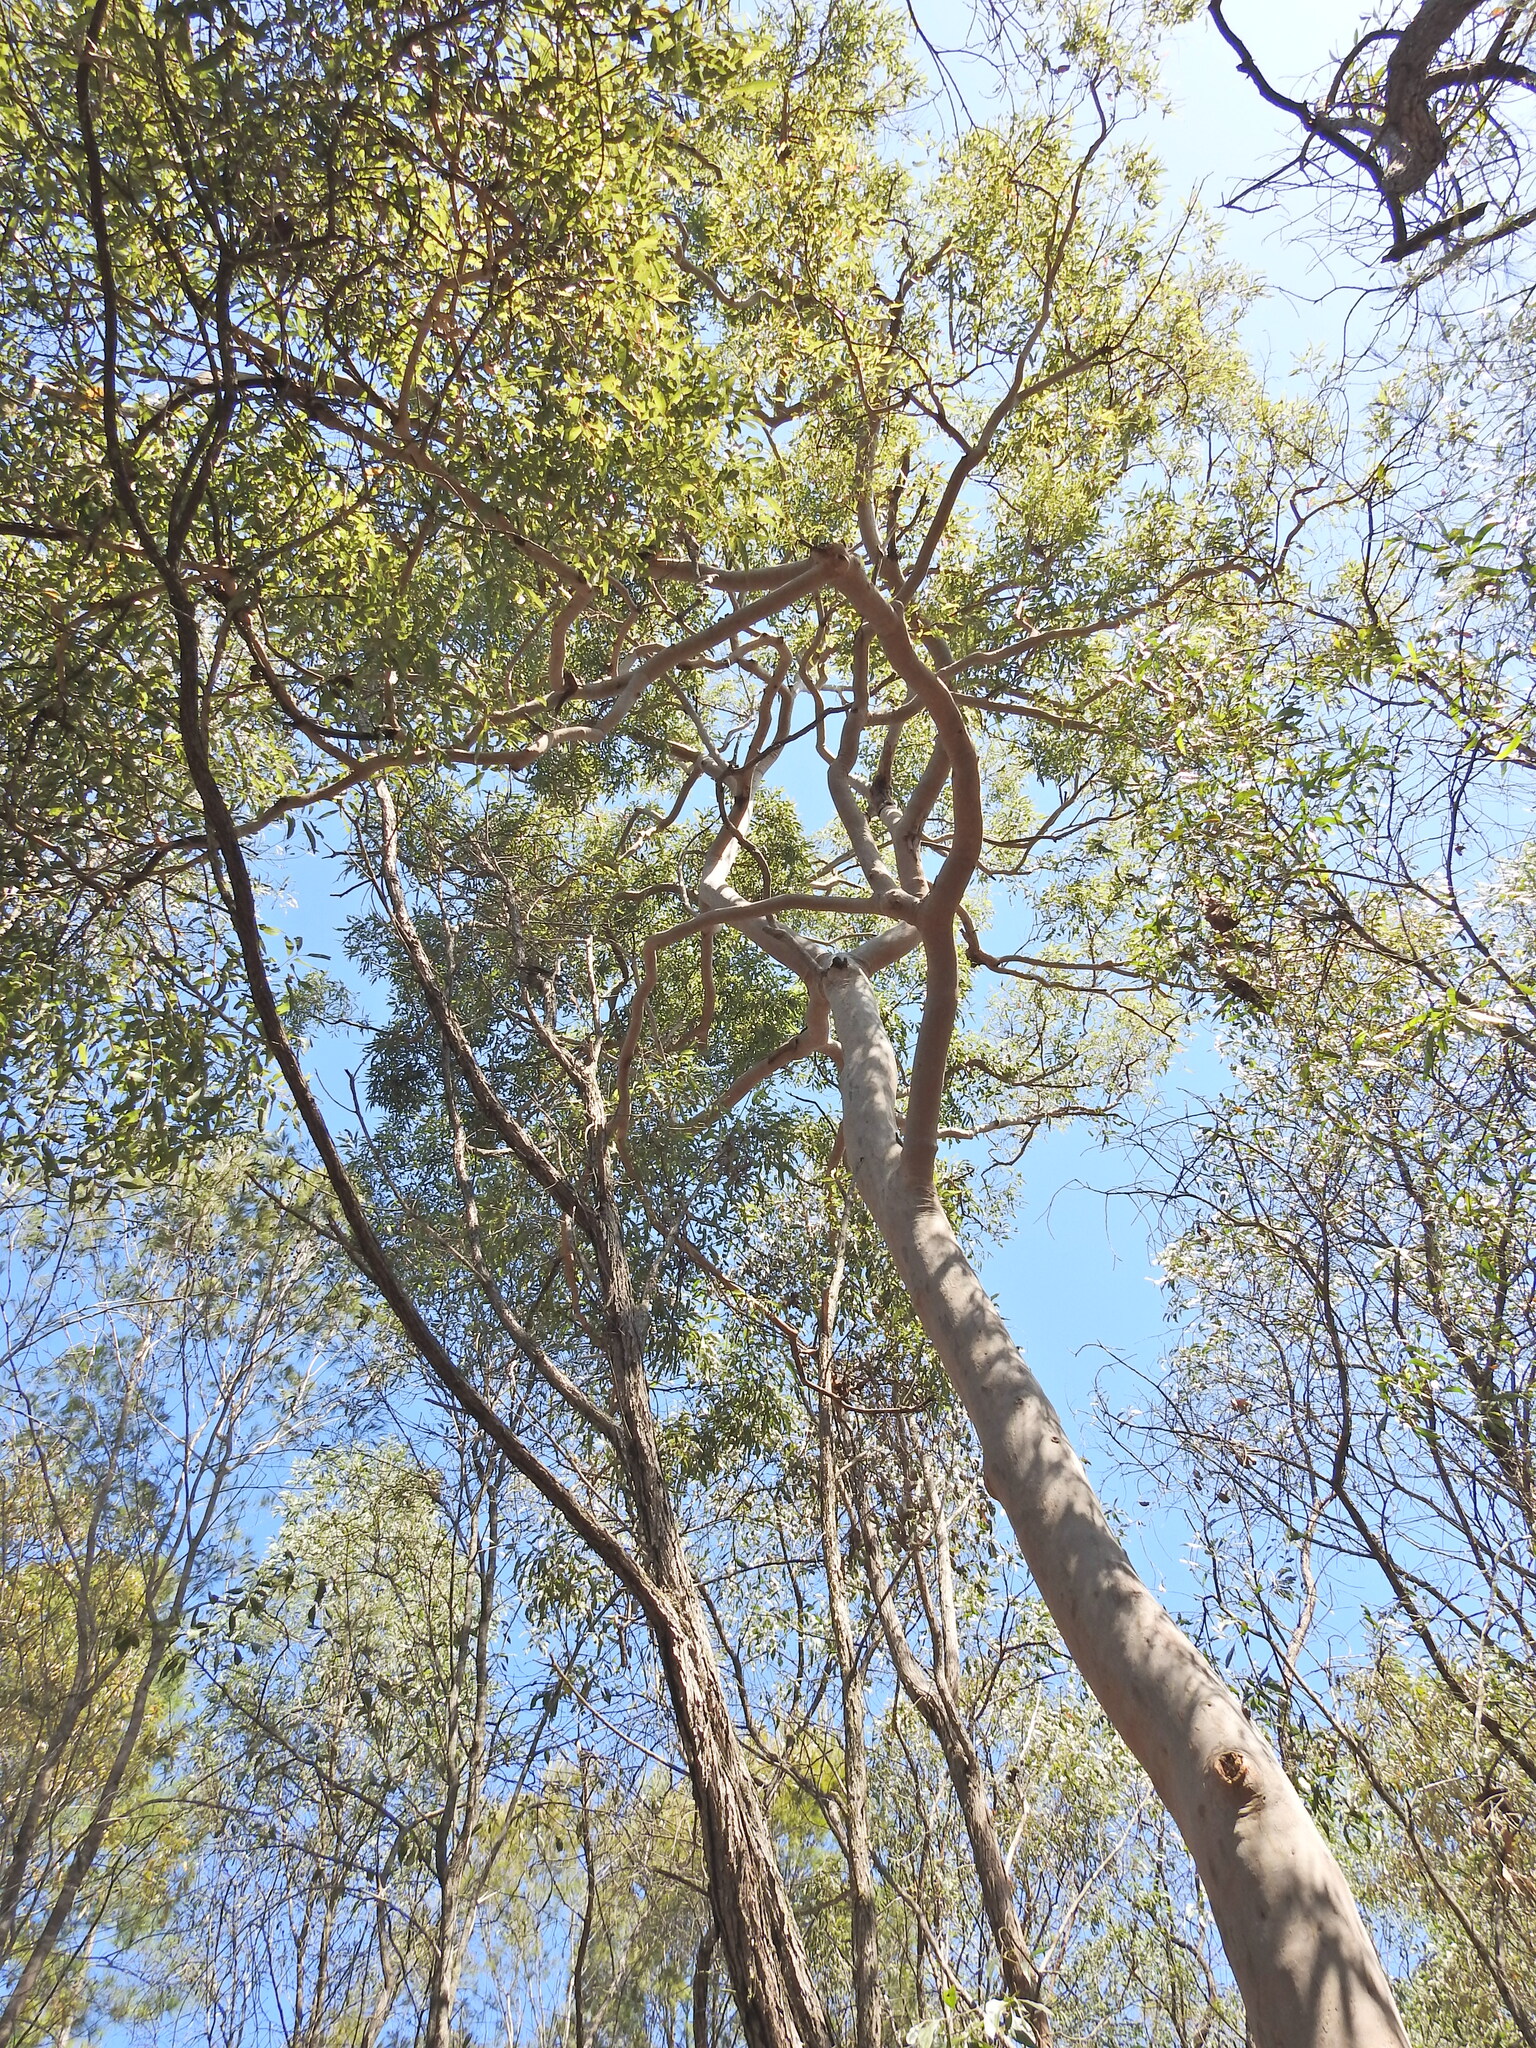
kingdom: Plantae
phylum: Tracheophyta
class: Magnoliopsida
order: Myrtales
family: Myrtaceae
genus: Angophora
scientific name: Angophora leiocarpa
